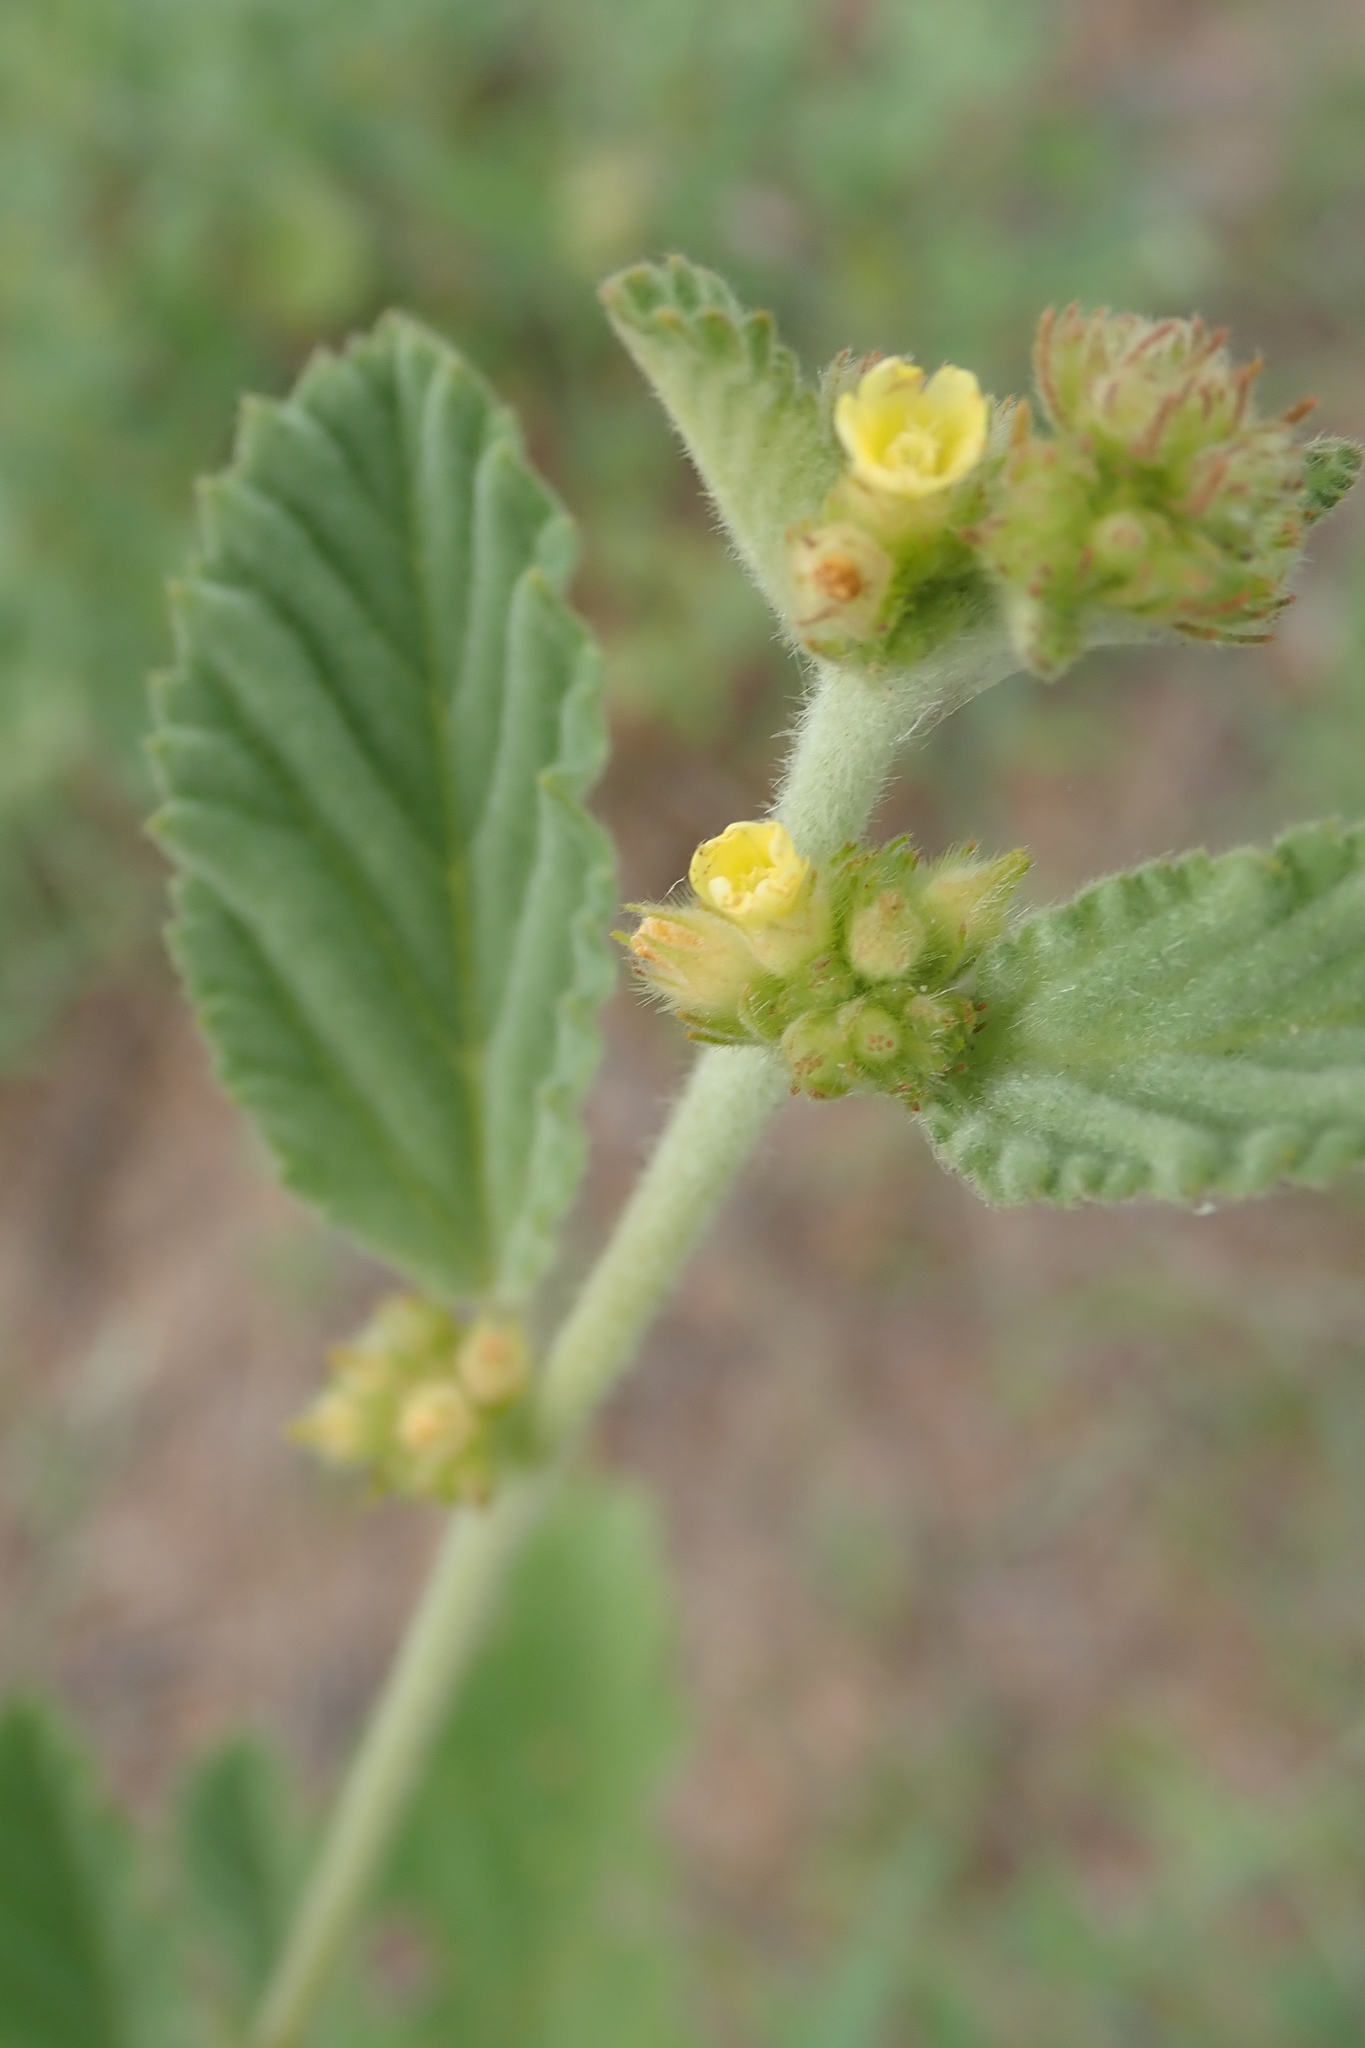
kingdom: Plantae
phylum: Tracheophyta
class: Magnoliopsida
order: Malvales
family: Malvaceae
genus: Waltheria
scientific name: Waltheria indica
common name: Leather-coat
